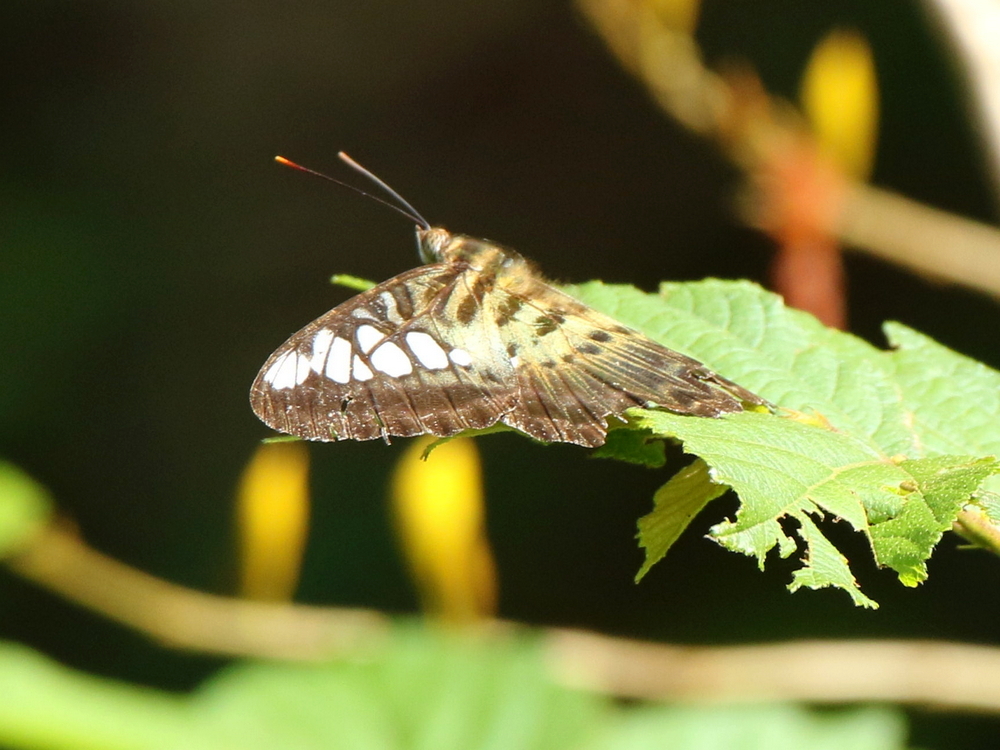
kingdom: Animalia
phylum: Arthropoda
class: Insecta
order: Lepidoptera
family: Nymphalidae
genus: Kallima
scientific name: Kallima sylvia
